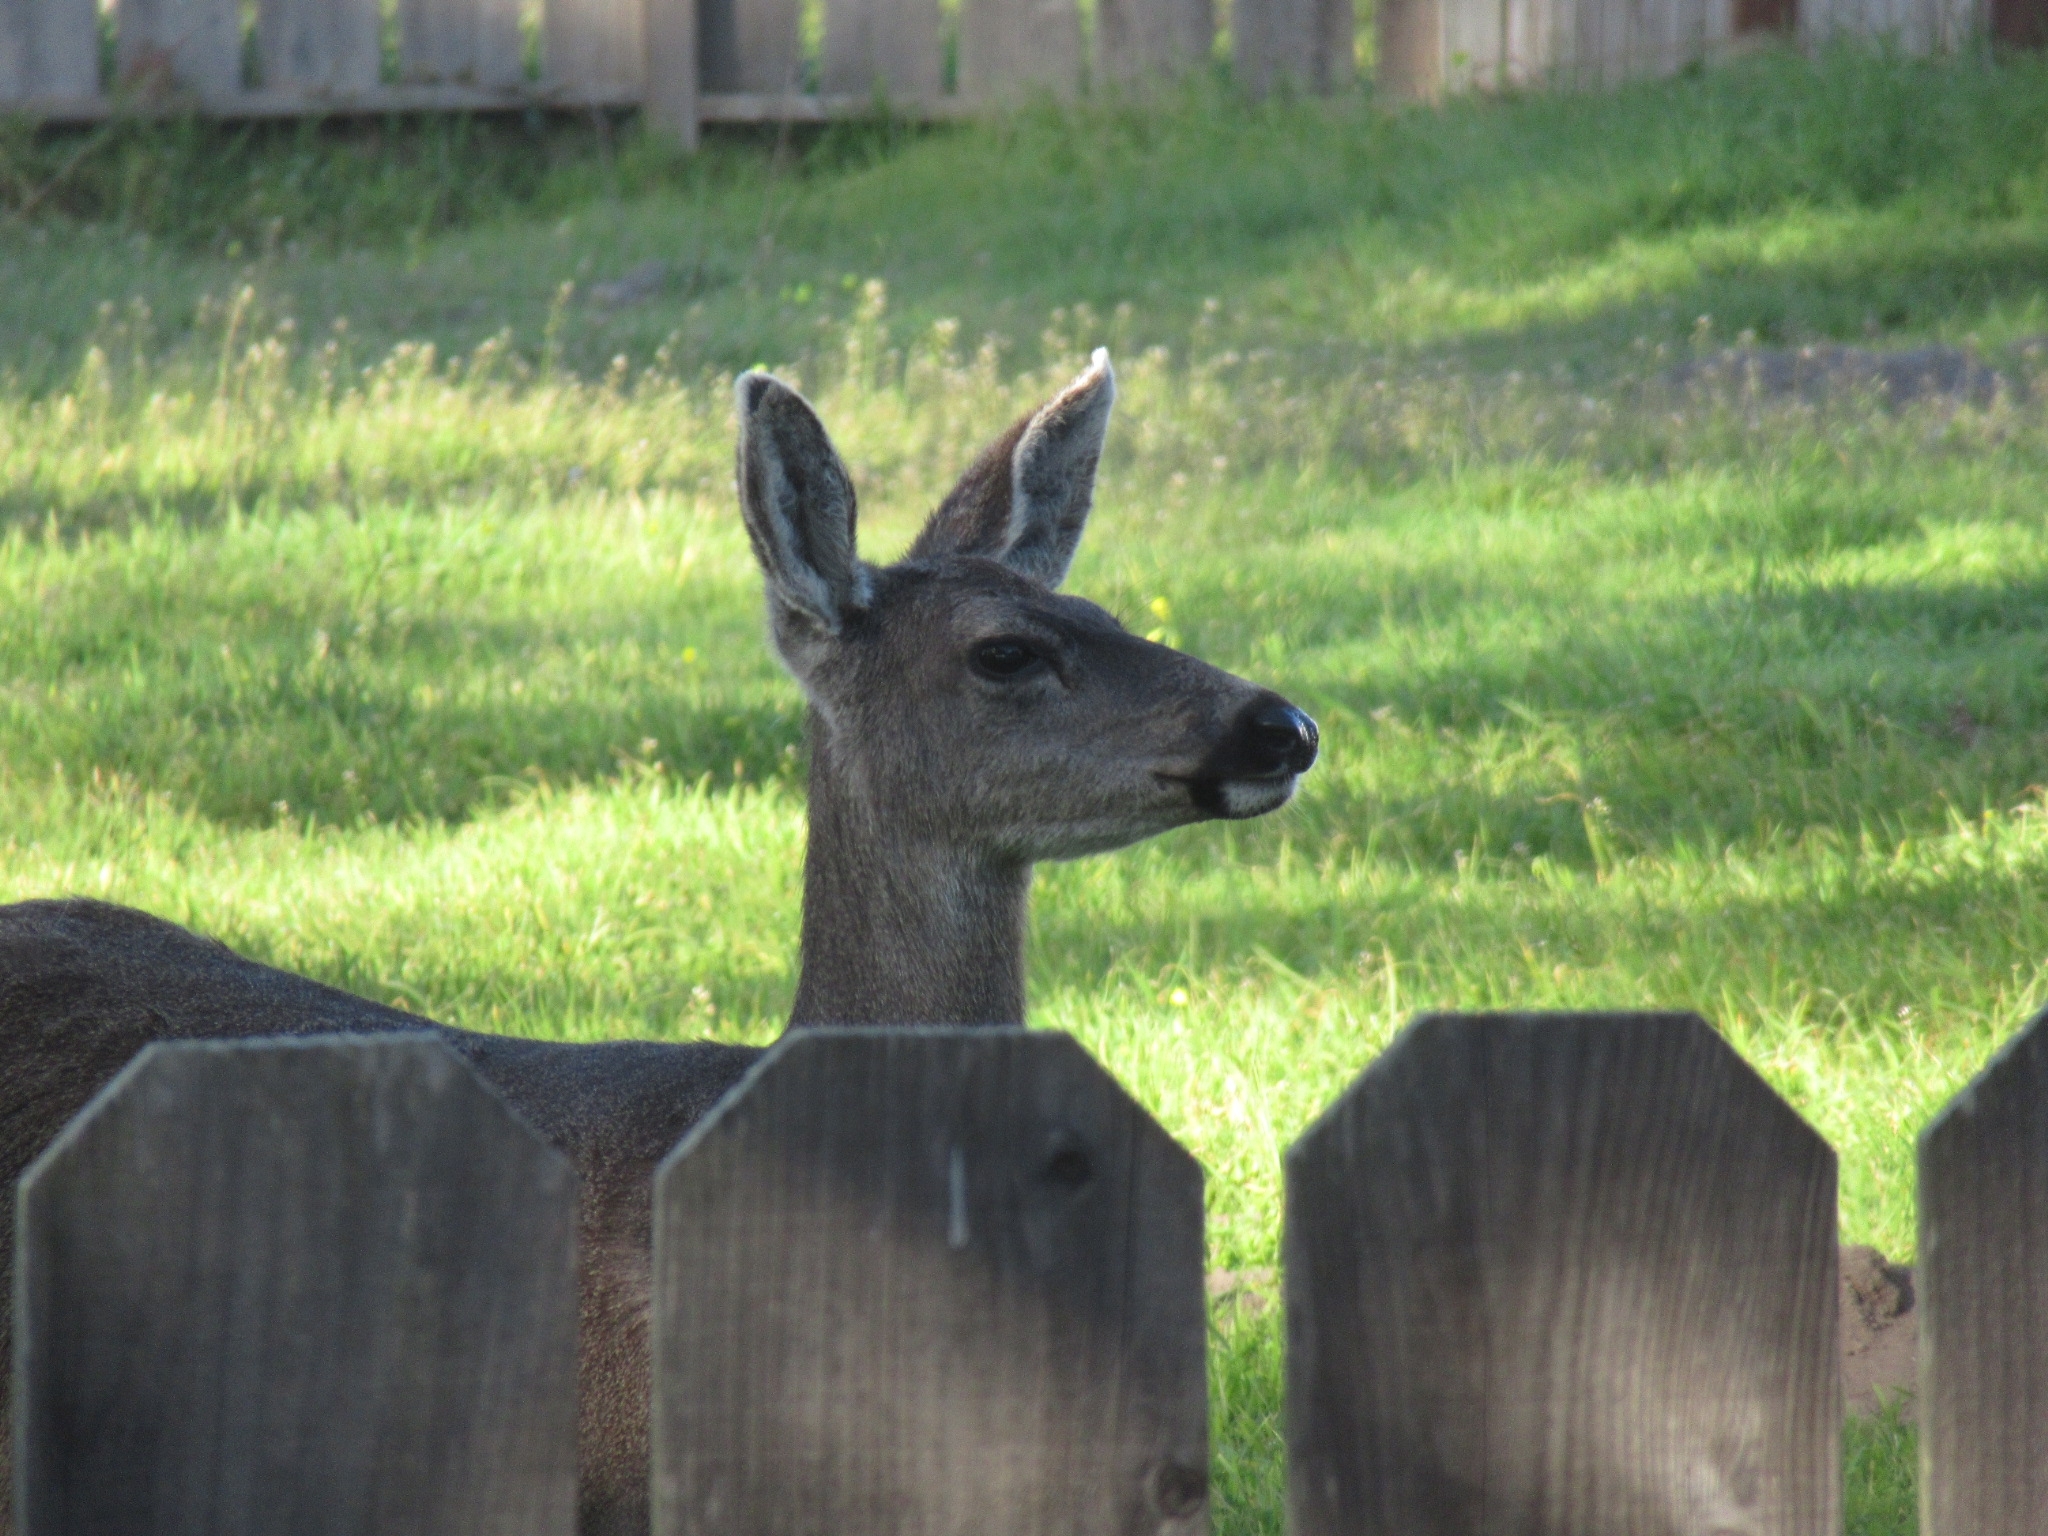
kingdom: Animalia
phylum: Chordata
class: Mammalia
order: Artiodactyla
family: Cervidae
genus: Odocoileus
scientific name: Odocoileus hemionus
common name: Mule deer
